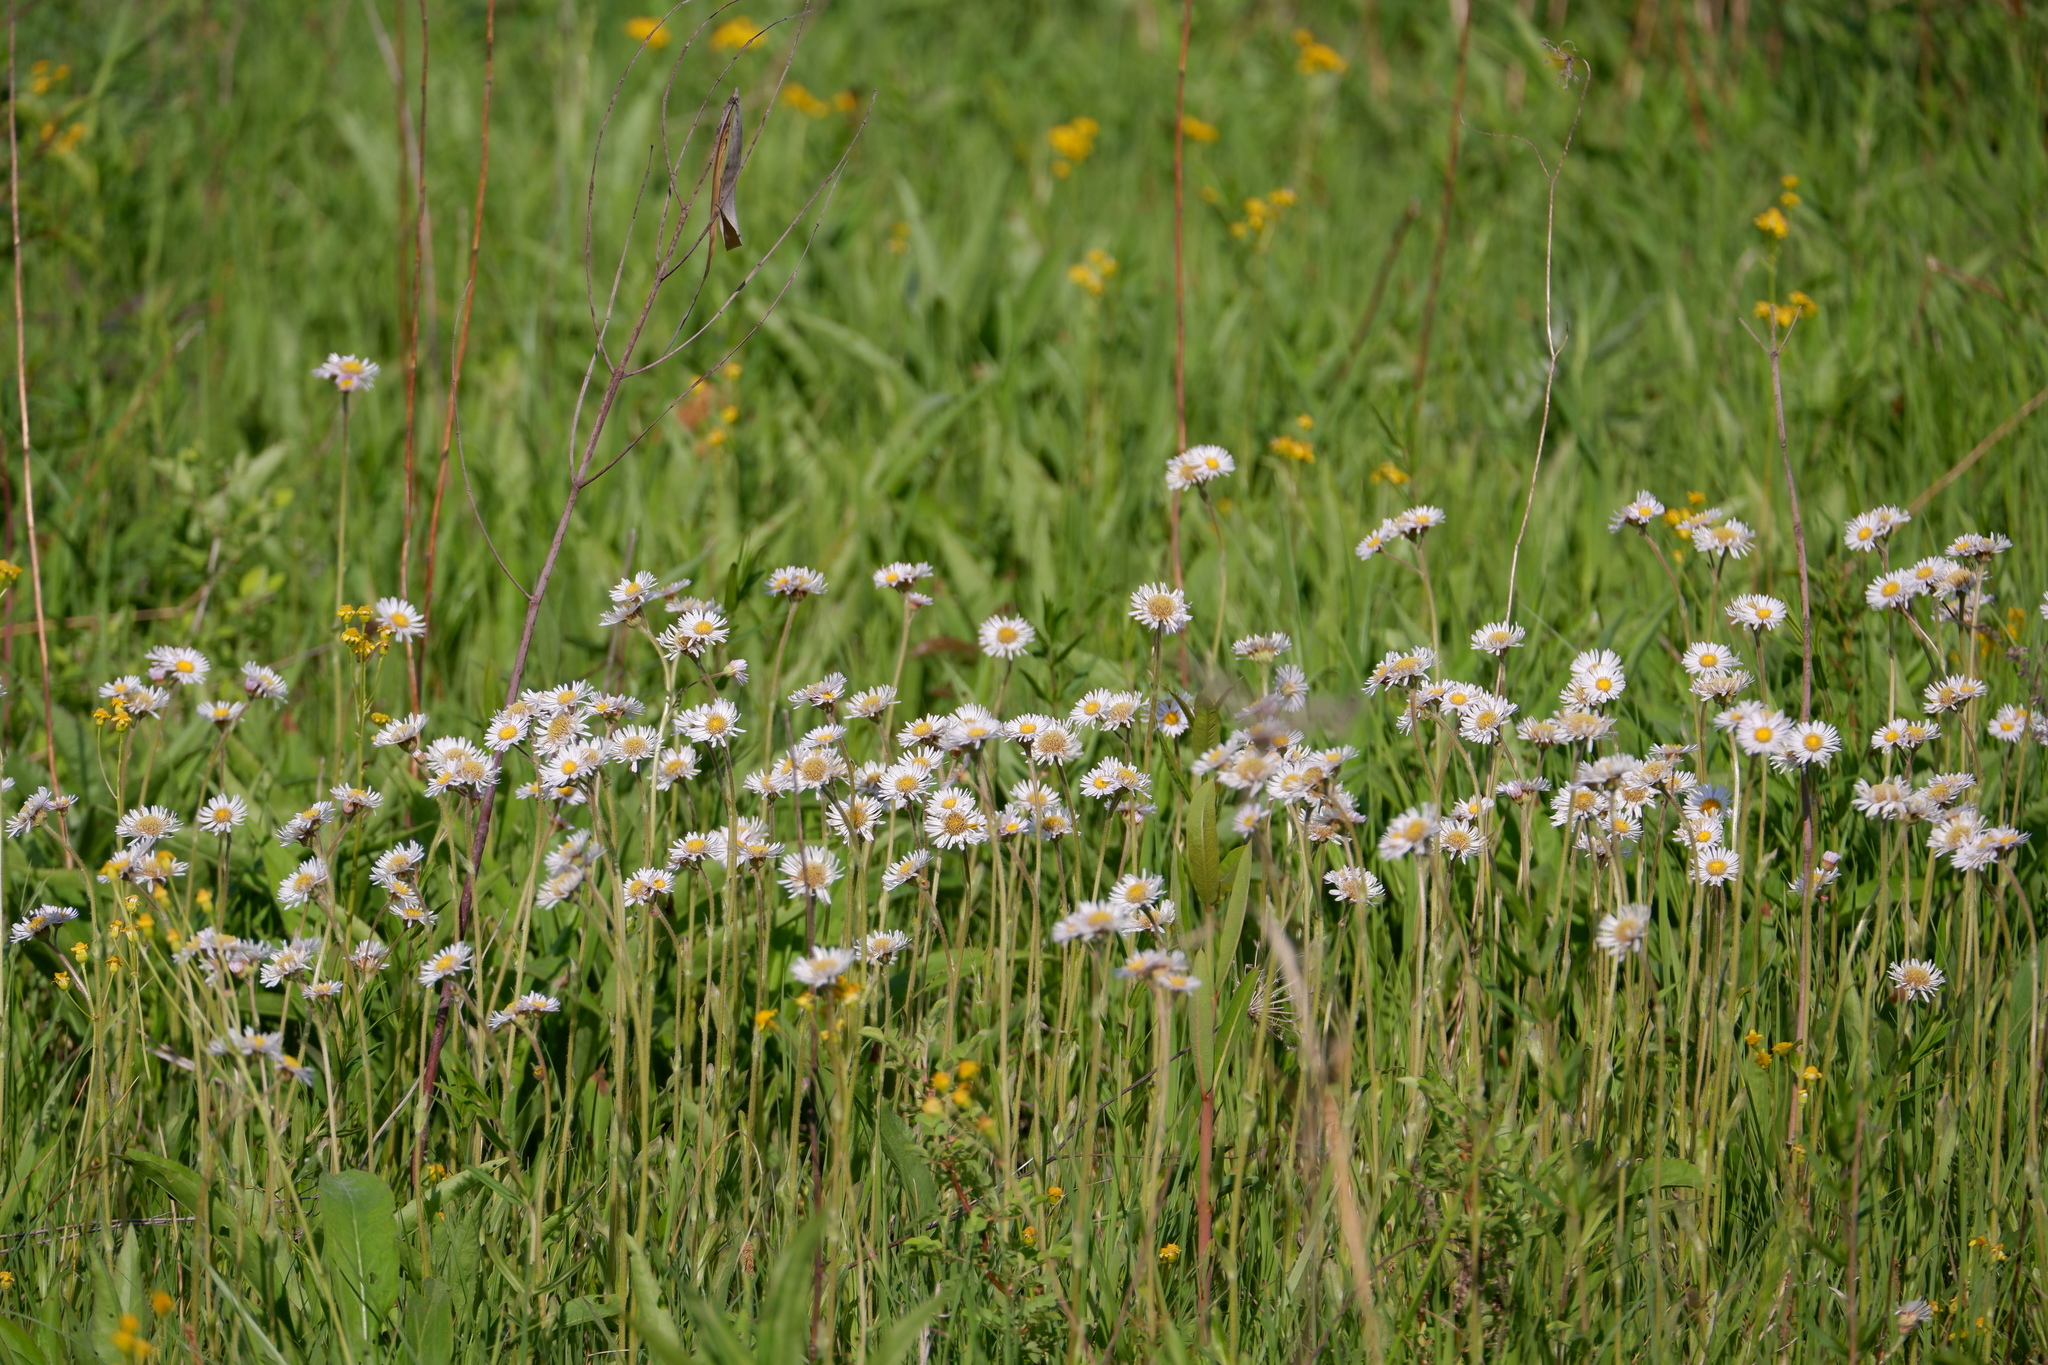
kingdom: Plantae
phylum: Tracheophyta
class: Magnoliopsida
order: Asterales
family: Asteraceae
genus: Erigeron
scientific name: Erigeron pulchellus
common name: Hairy fleabane
